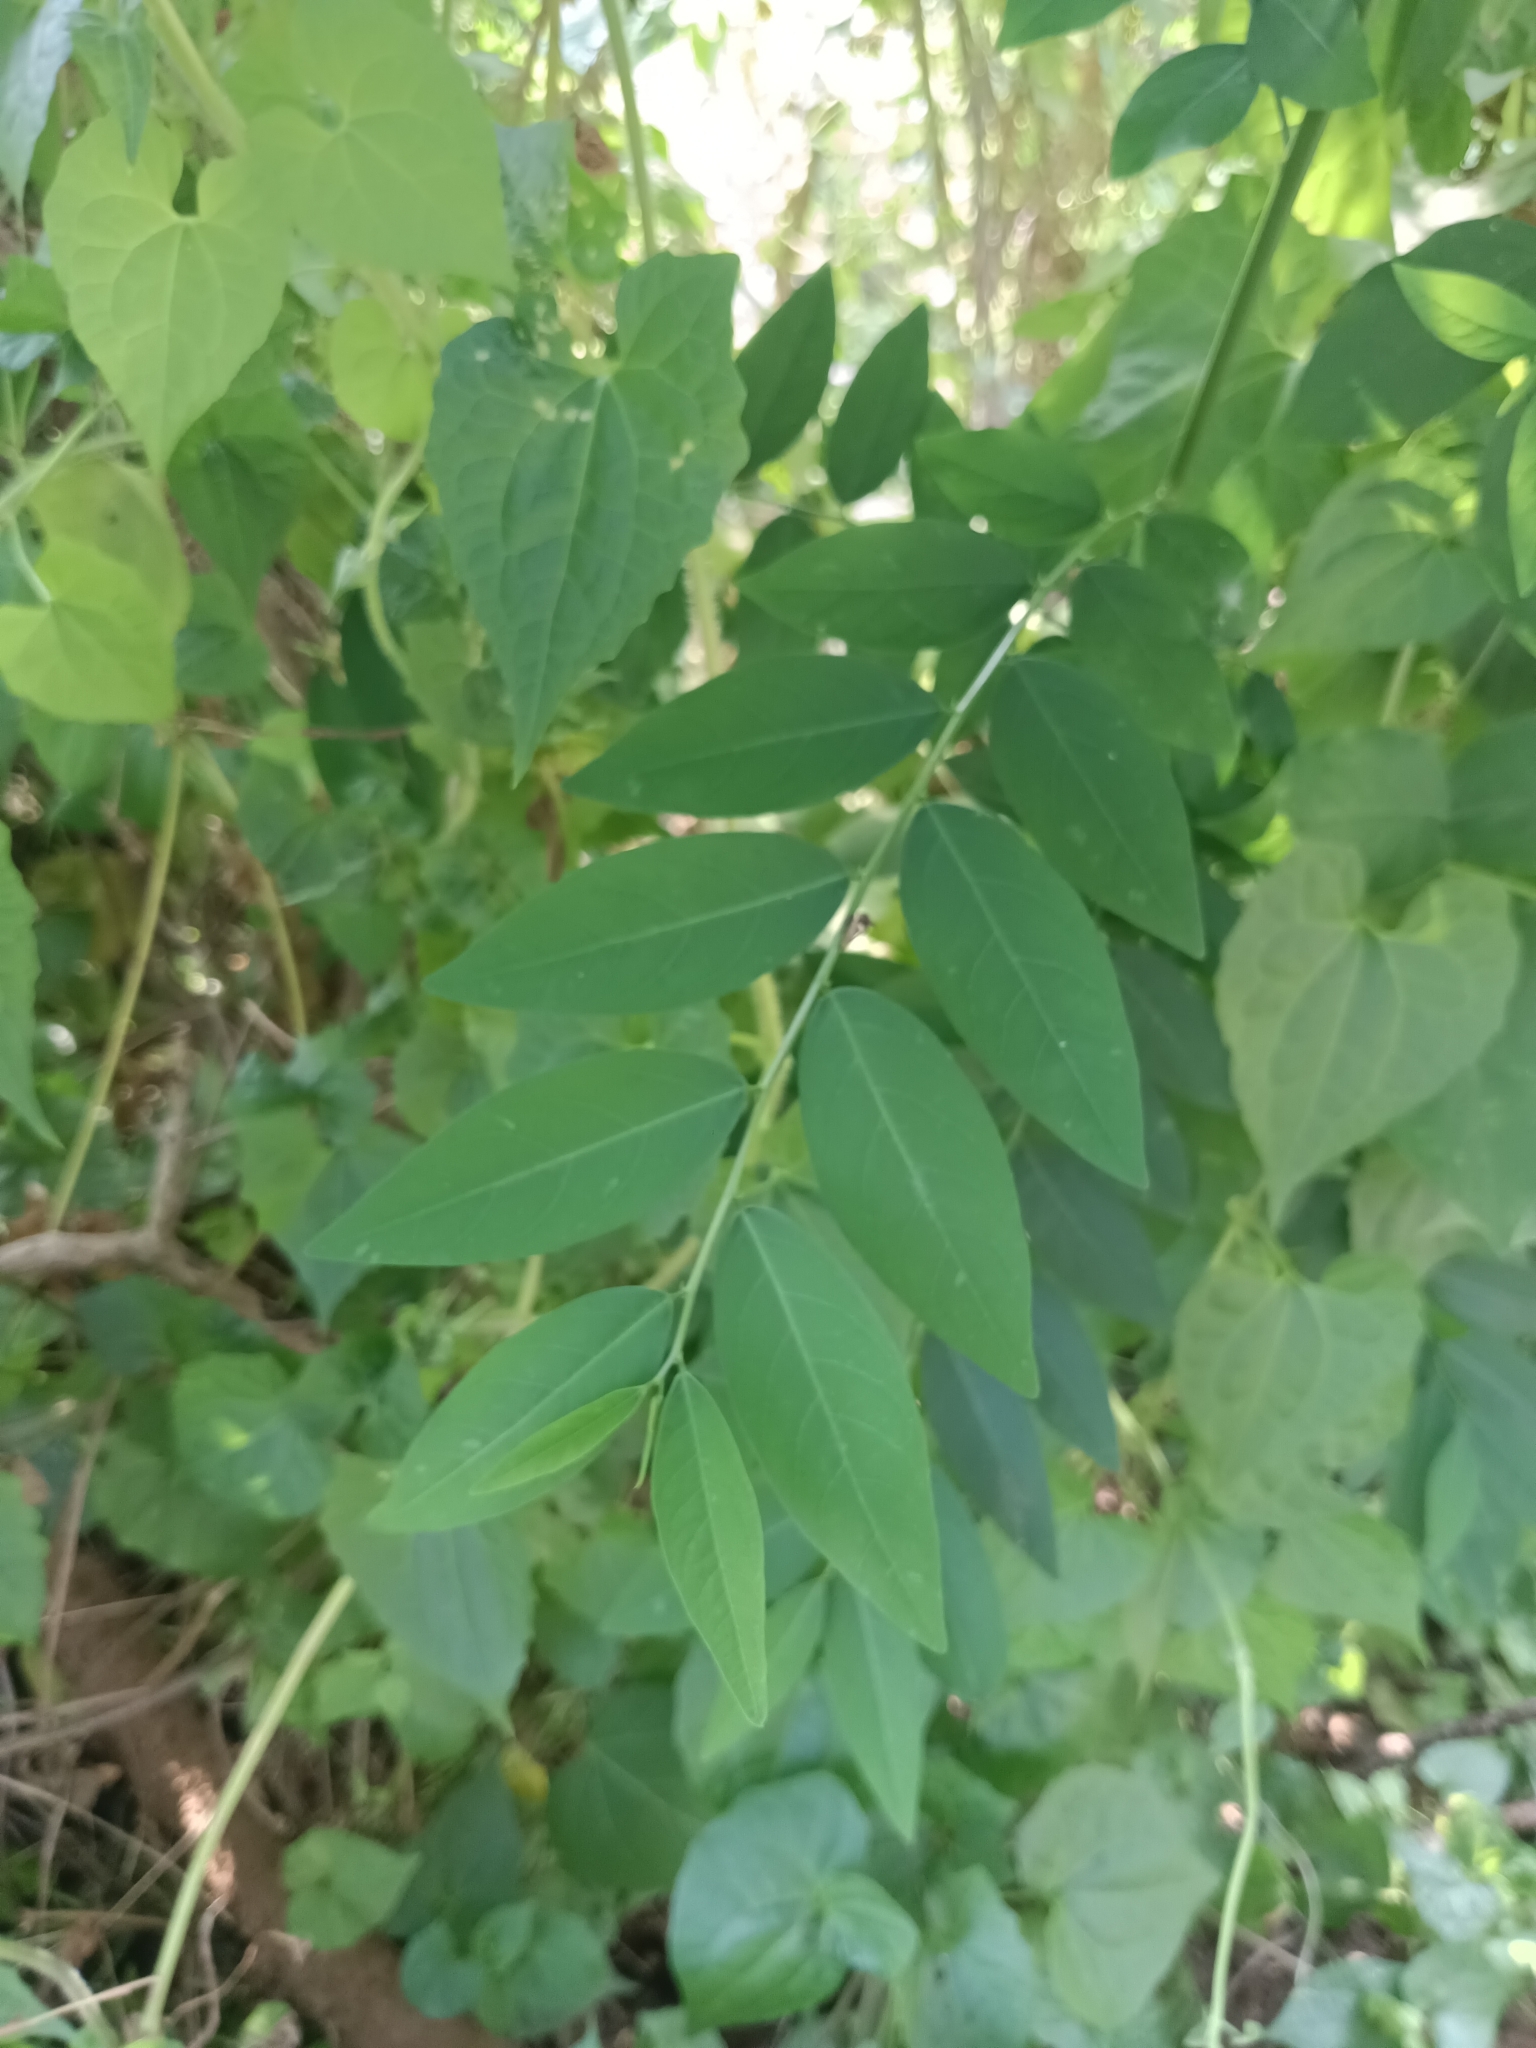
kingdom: Plantae
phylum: Tracheophyta
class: Magnoliopsida
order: Malpighiales
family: Phyllanthaceae
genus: Breynia
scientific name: Breynia androgyna
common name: Star gooseberry
